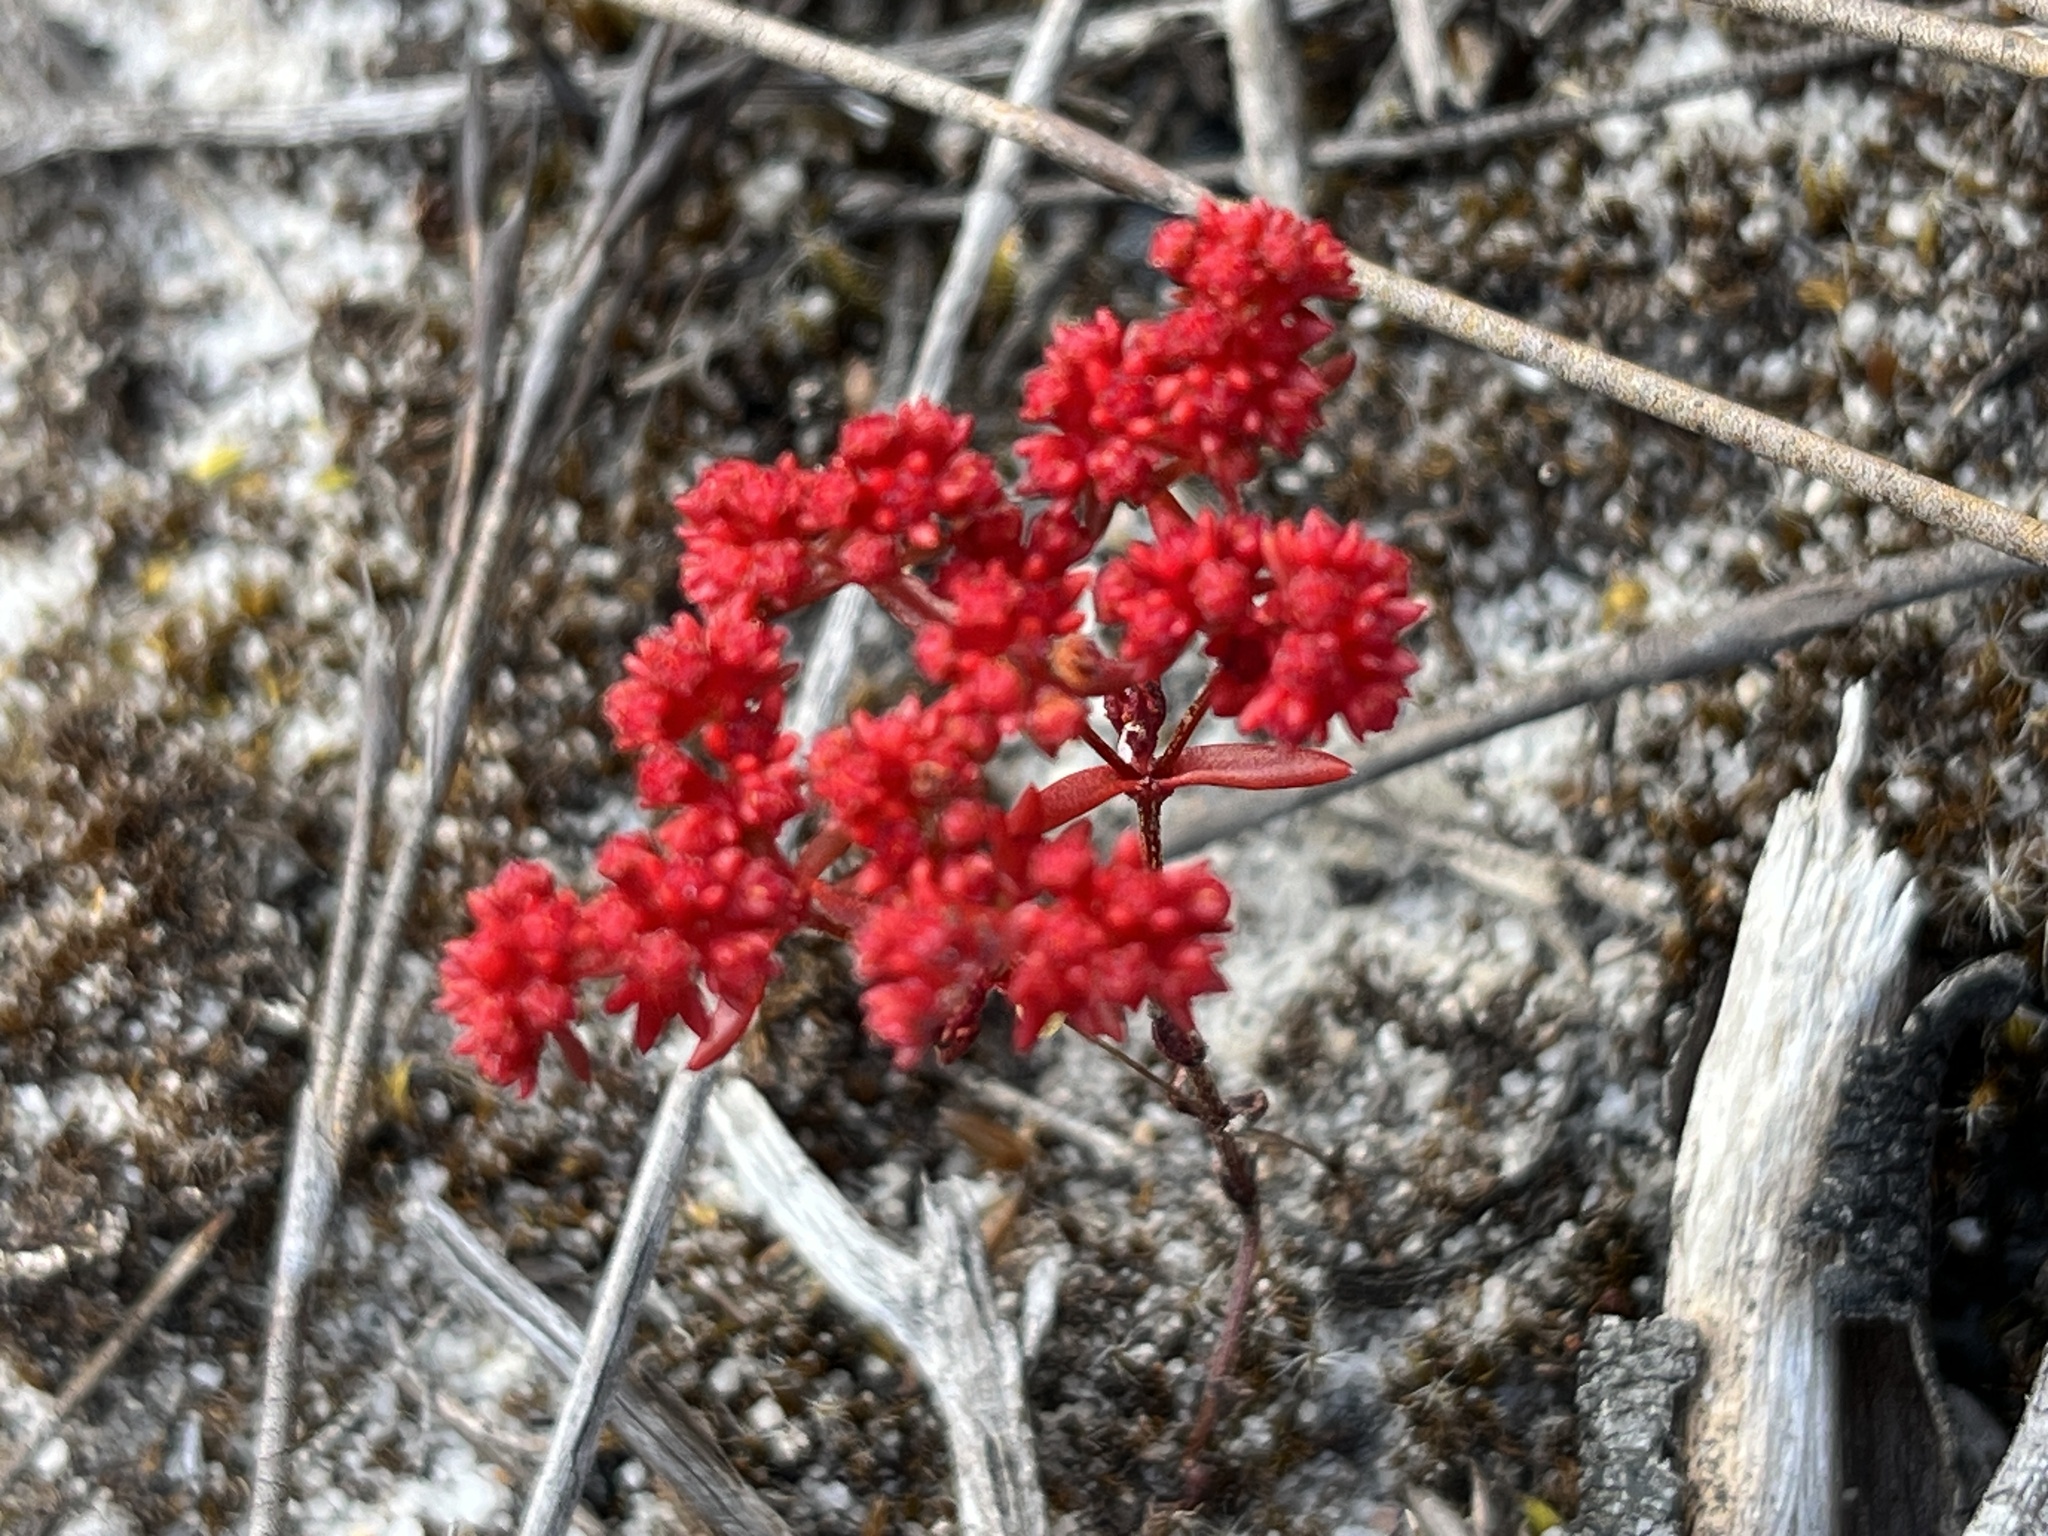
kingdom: Plantae
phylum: Tracheophyta
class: Magnoliopsida
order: Saxifragales
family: Crassulaceae
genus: Crassula
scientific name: Crassula glomerata
